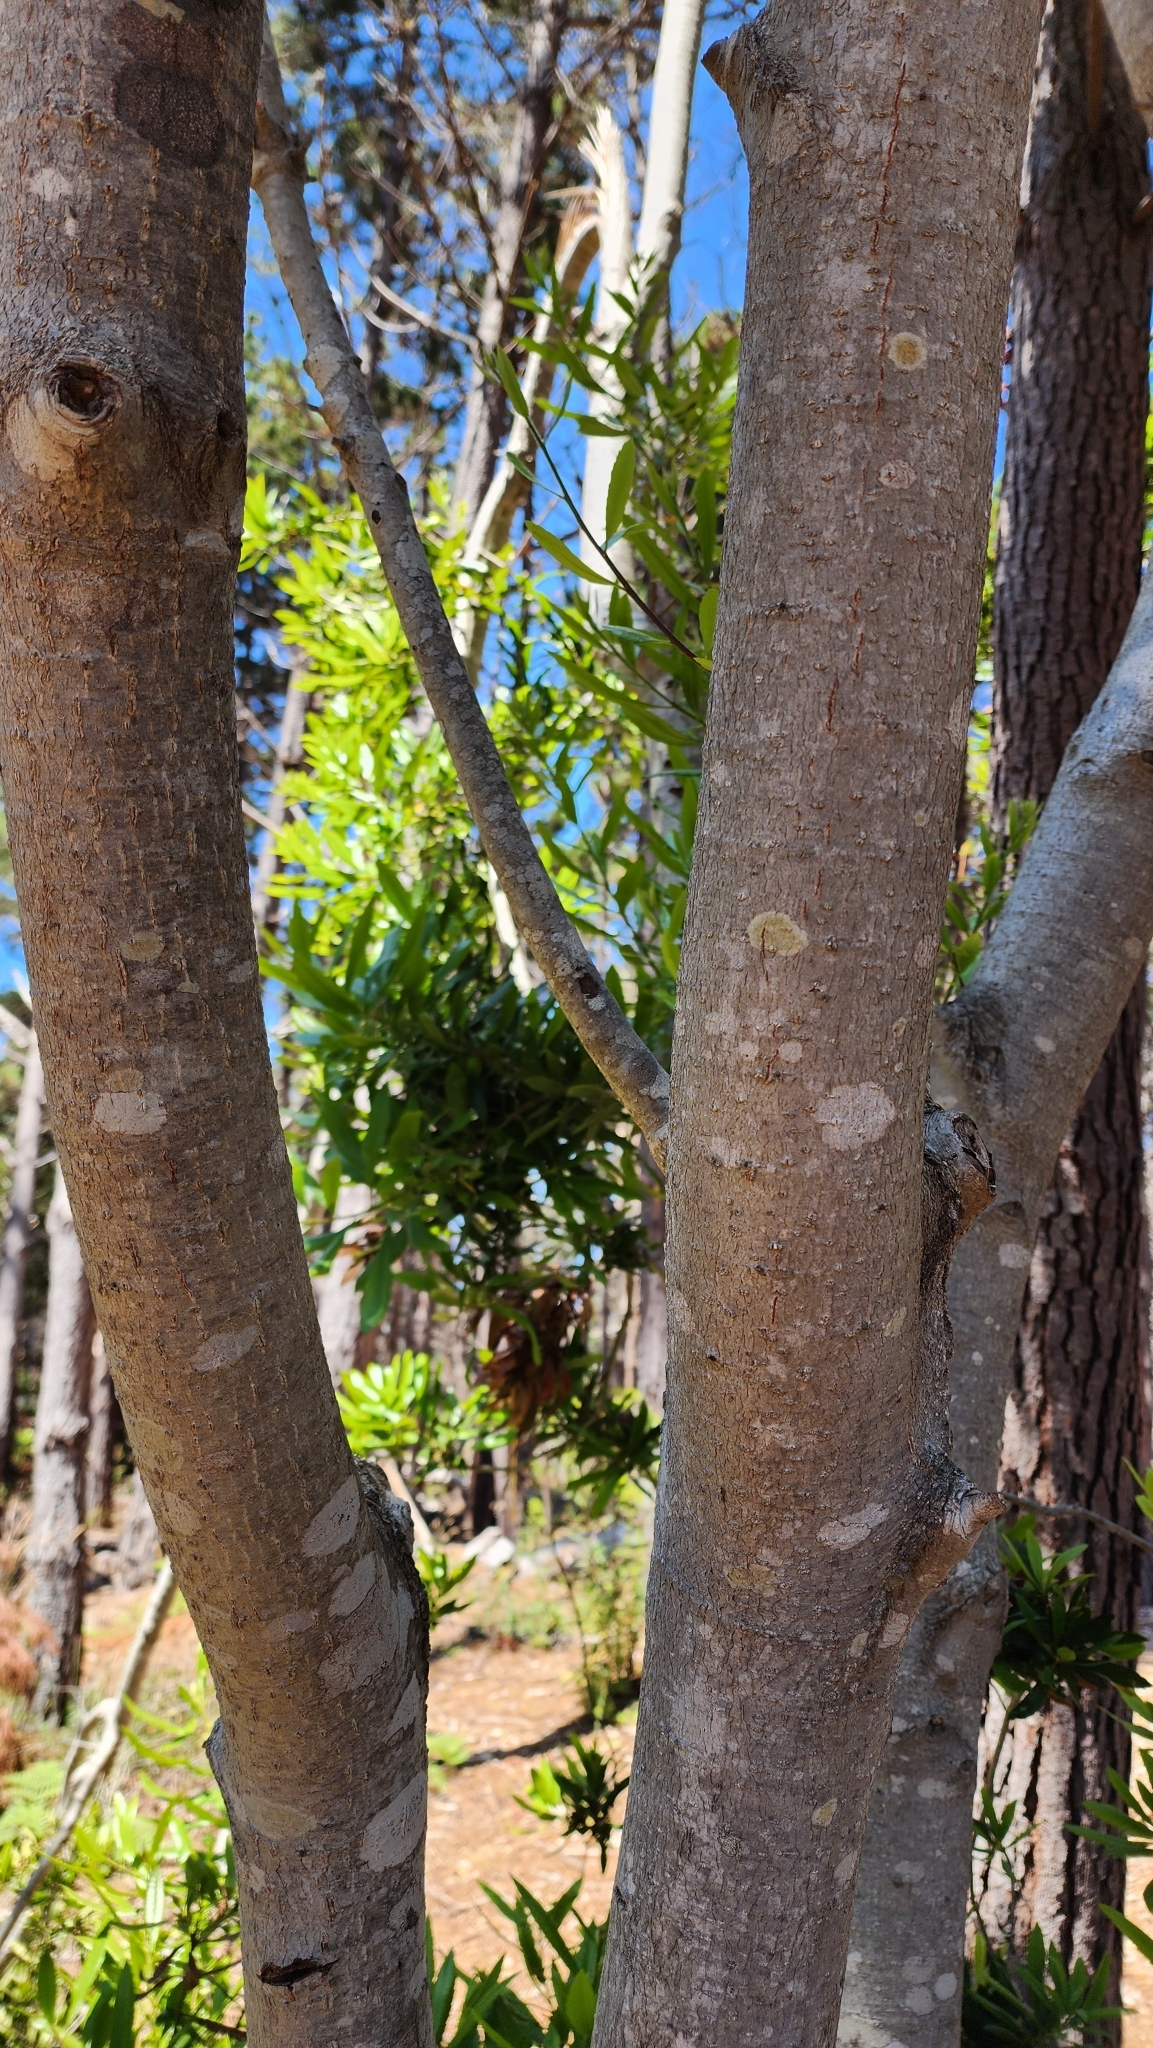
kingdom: Plantae
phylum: Tracheophyta
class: Magnoliopsida
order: Fagales
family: Myricaceae
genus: Morella
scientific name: Morella californica
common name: California wax-myrtle
